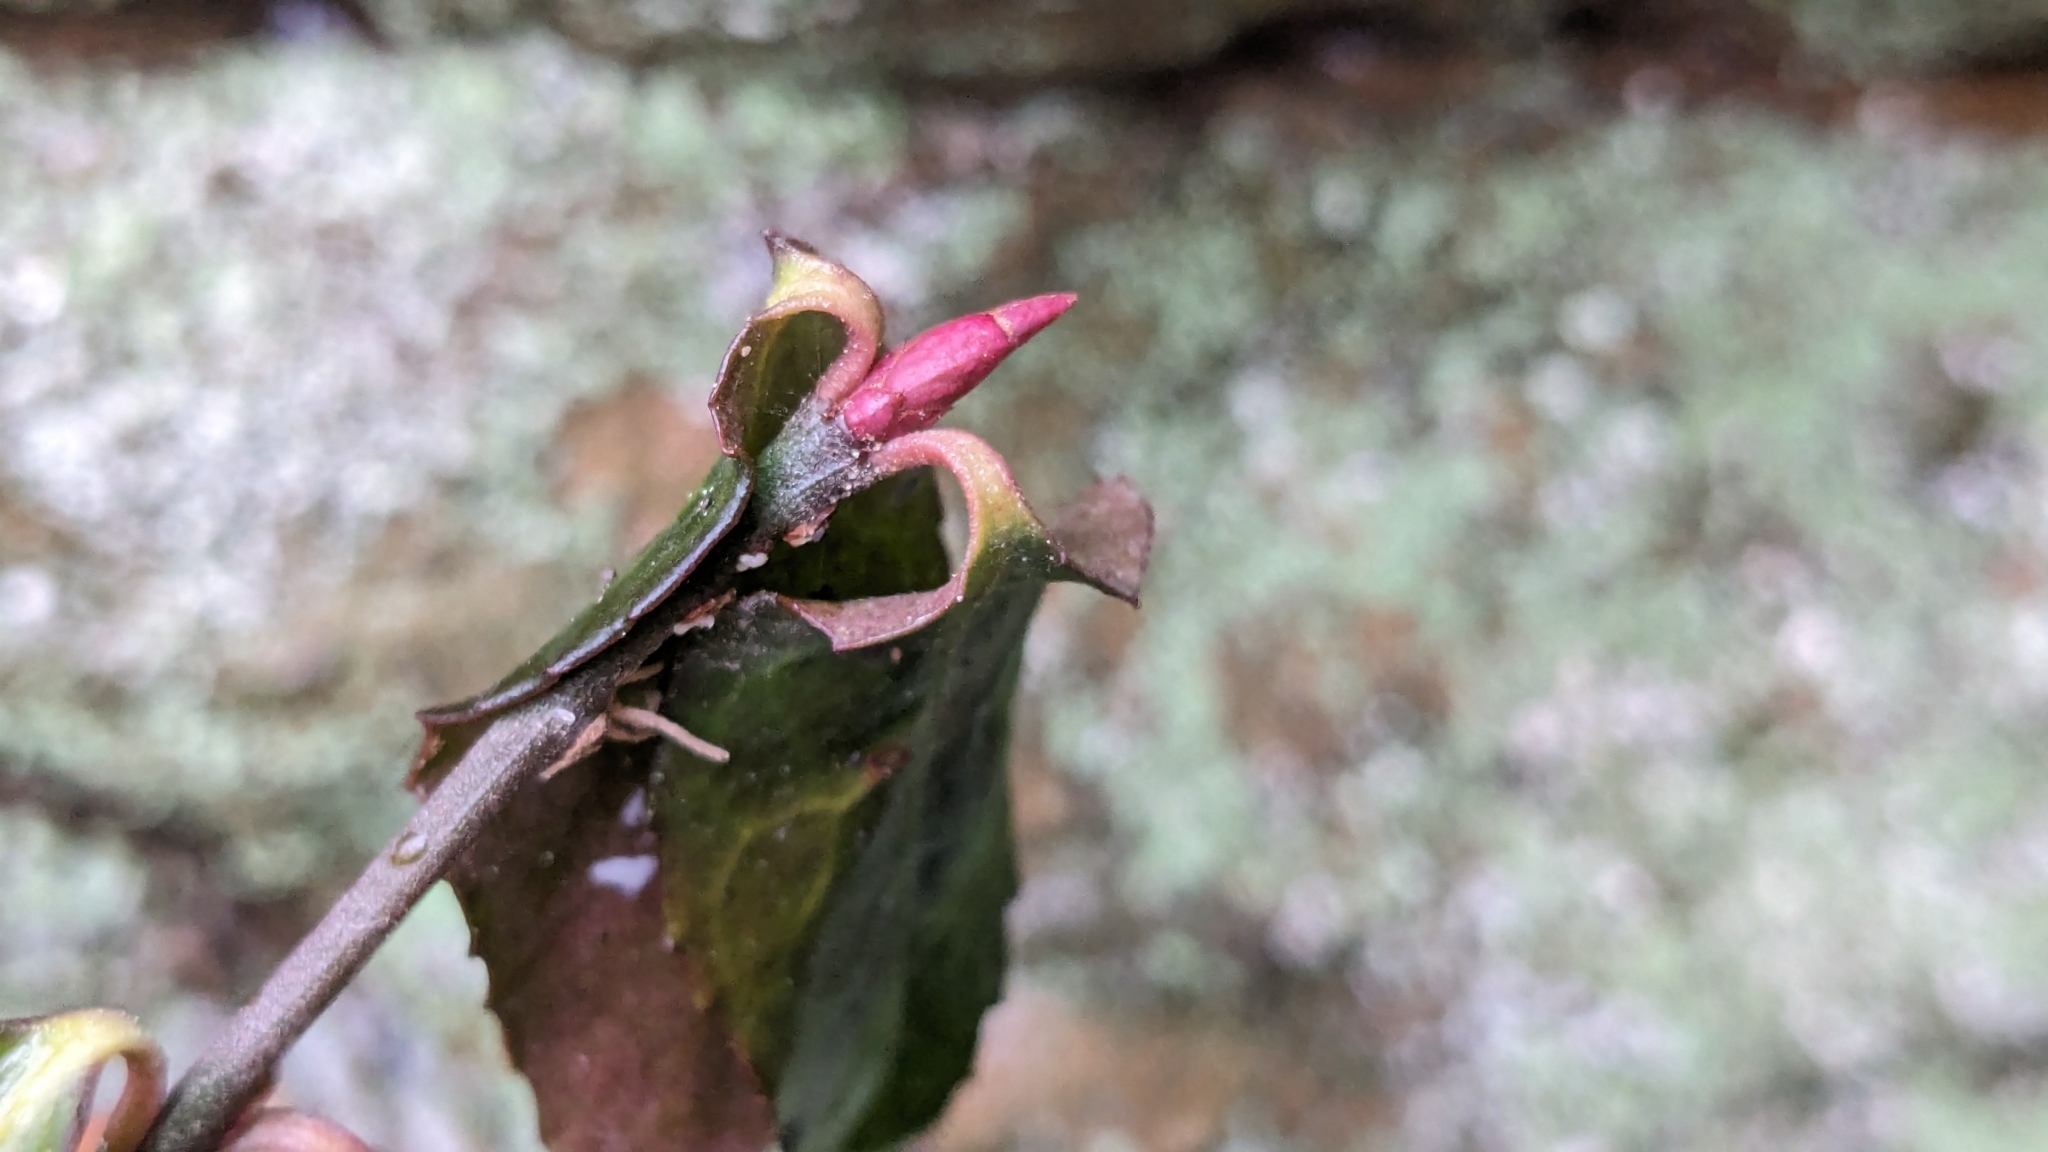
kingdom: Plantae
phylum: Tracheophyta
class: Magnoliopsida
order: Celastrales
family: Celastraceae
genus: Euonymus
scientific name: Euonymus fortunei
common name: Climbing euonymus
